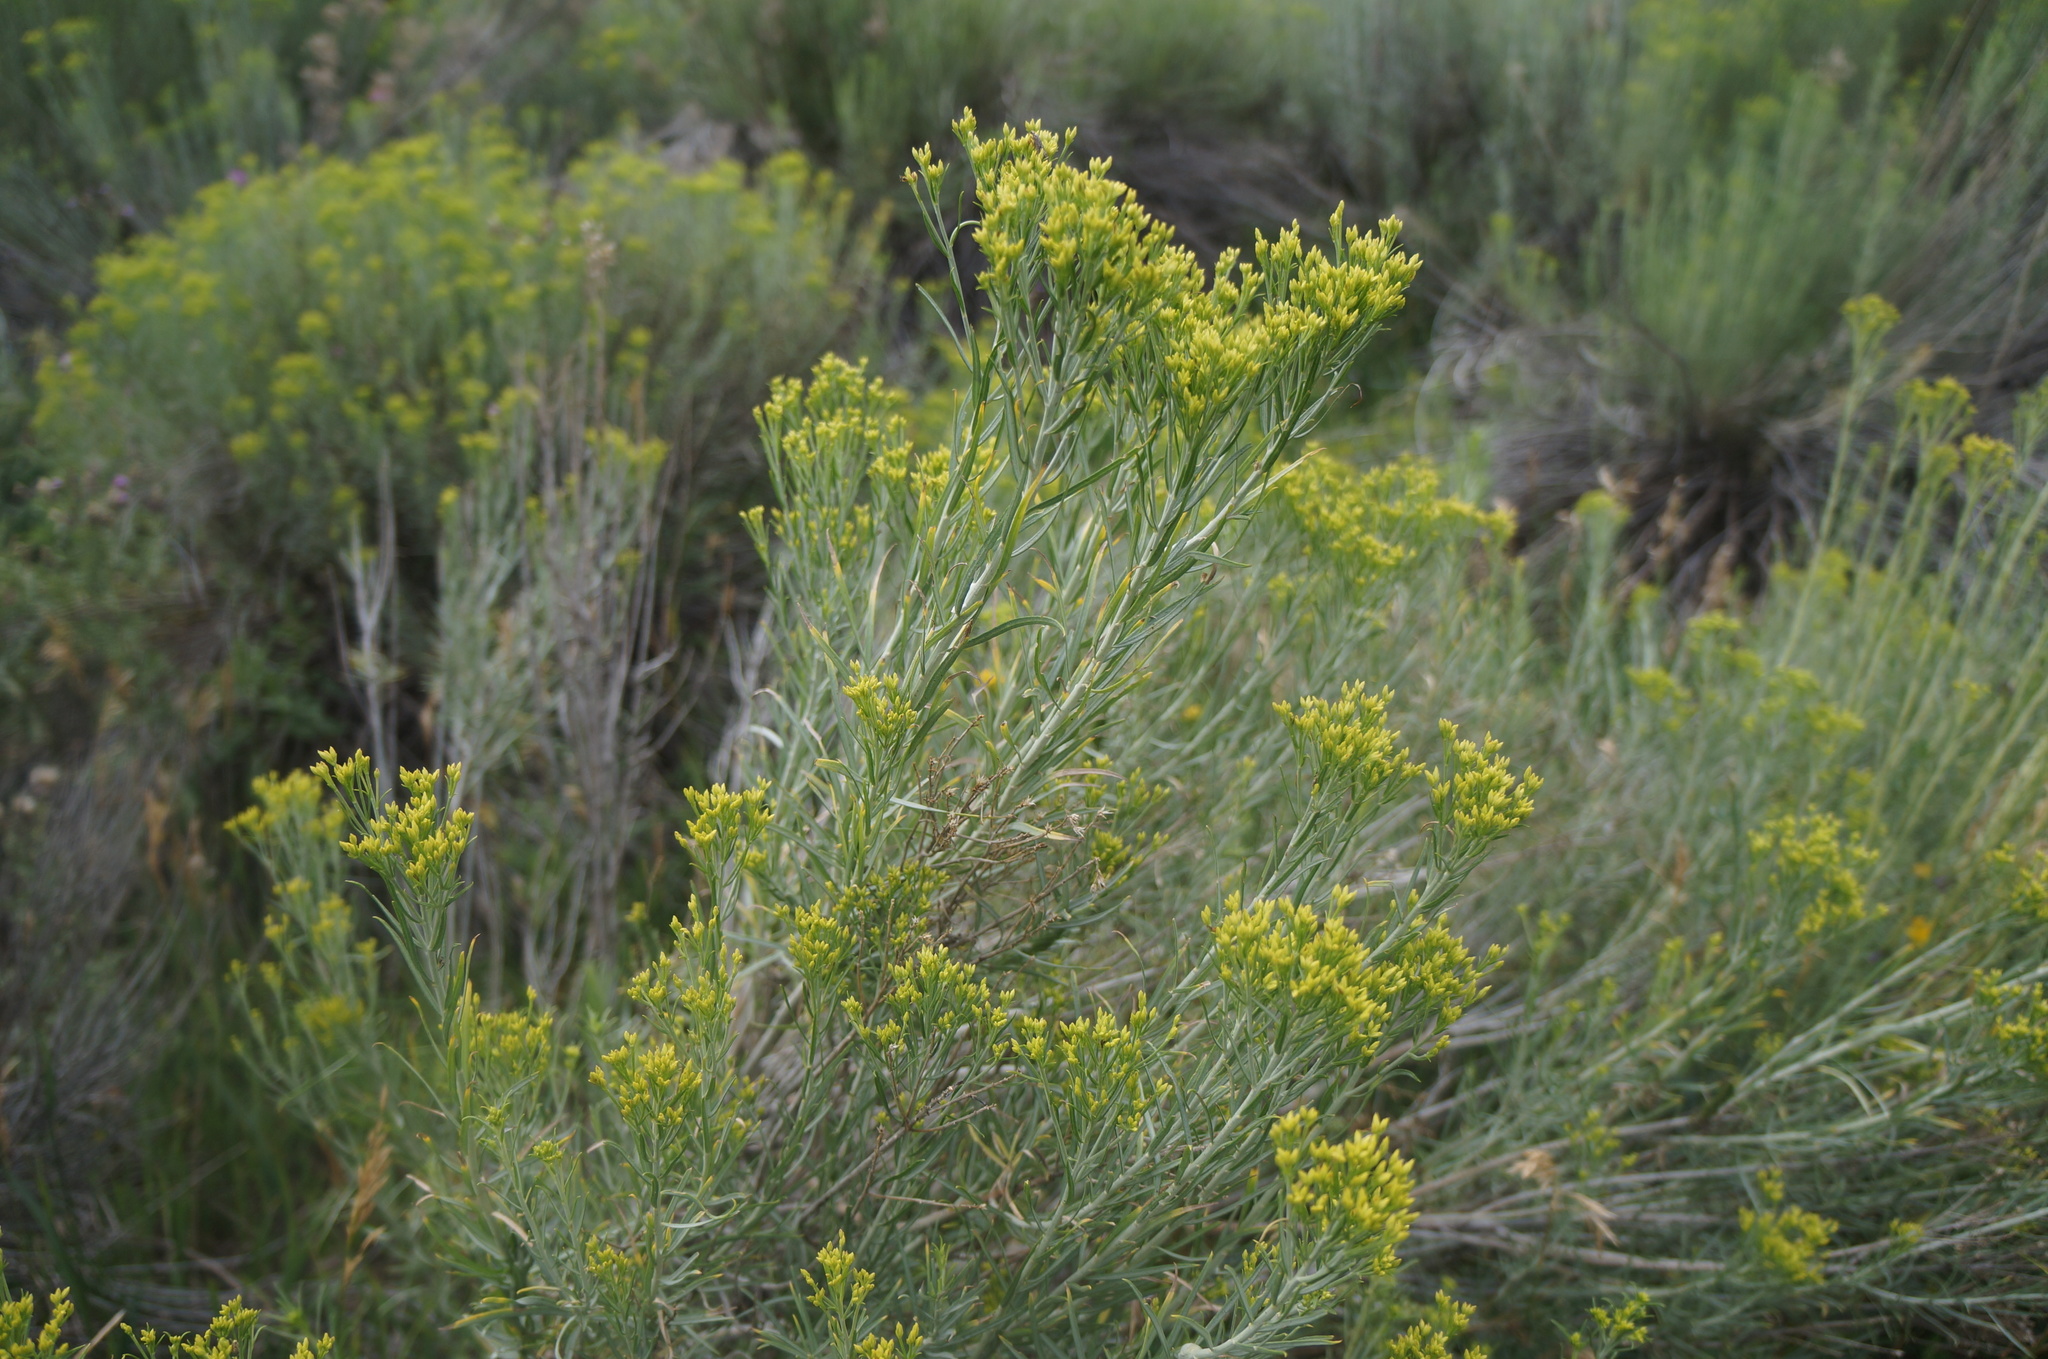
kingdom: Plantae
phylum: Tracheophyta
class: Magnoliopsida
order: Asterales
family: Asteraceae
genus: Chrysothamnus
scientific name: Chrysothamnus viscidiflorus
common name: Yellow rabbitbrush
